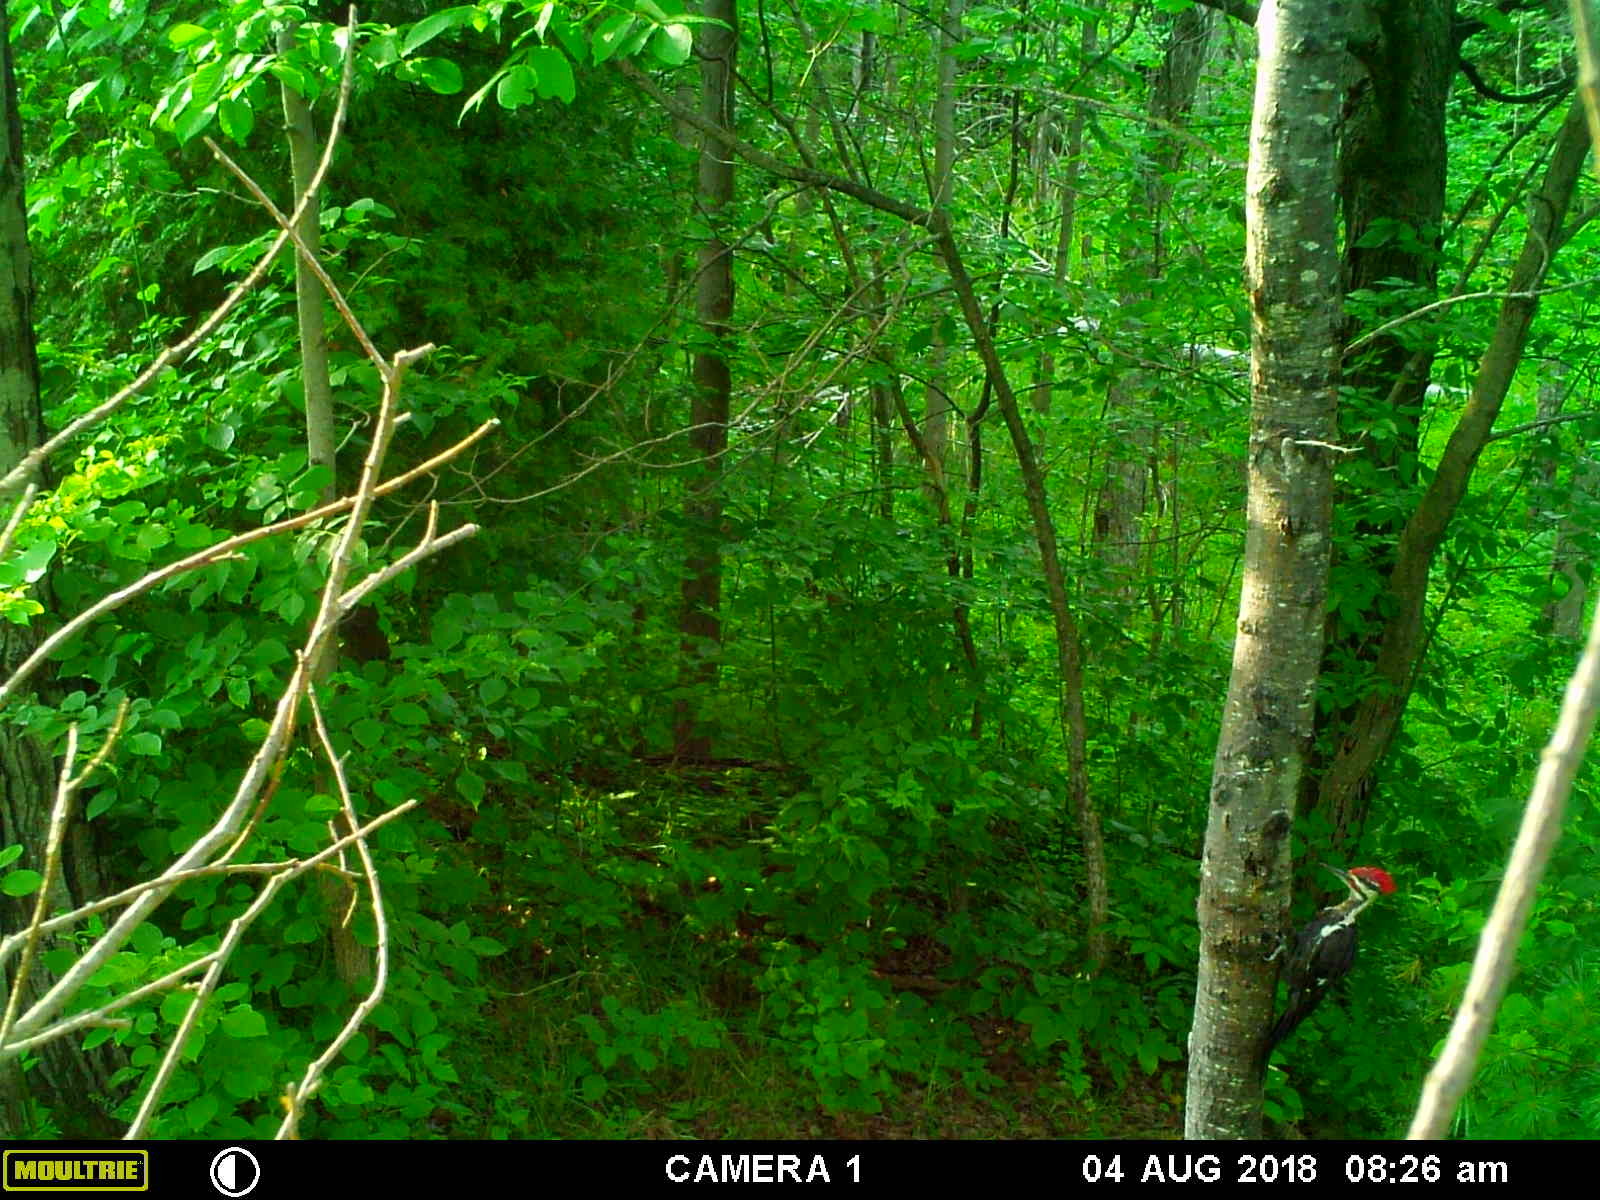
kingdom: Animalia
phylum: Chordata
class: Aves
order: Piciformes
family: Picidae
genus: Dryocopus
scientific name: Dryocopus pileatus
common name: Pileated woodpecker
